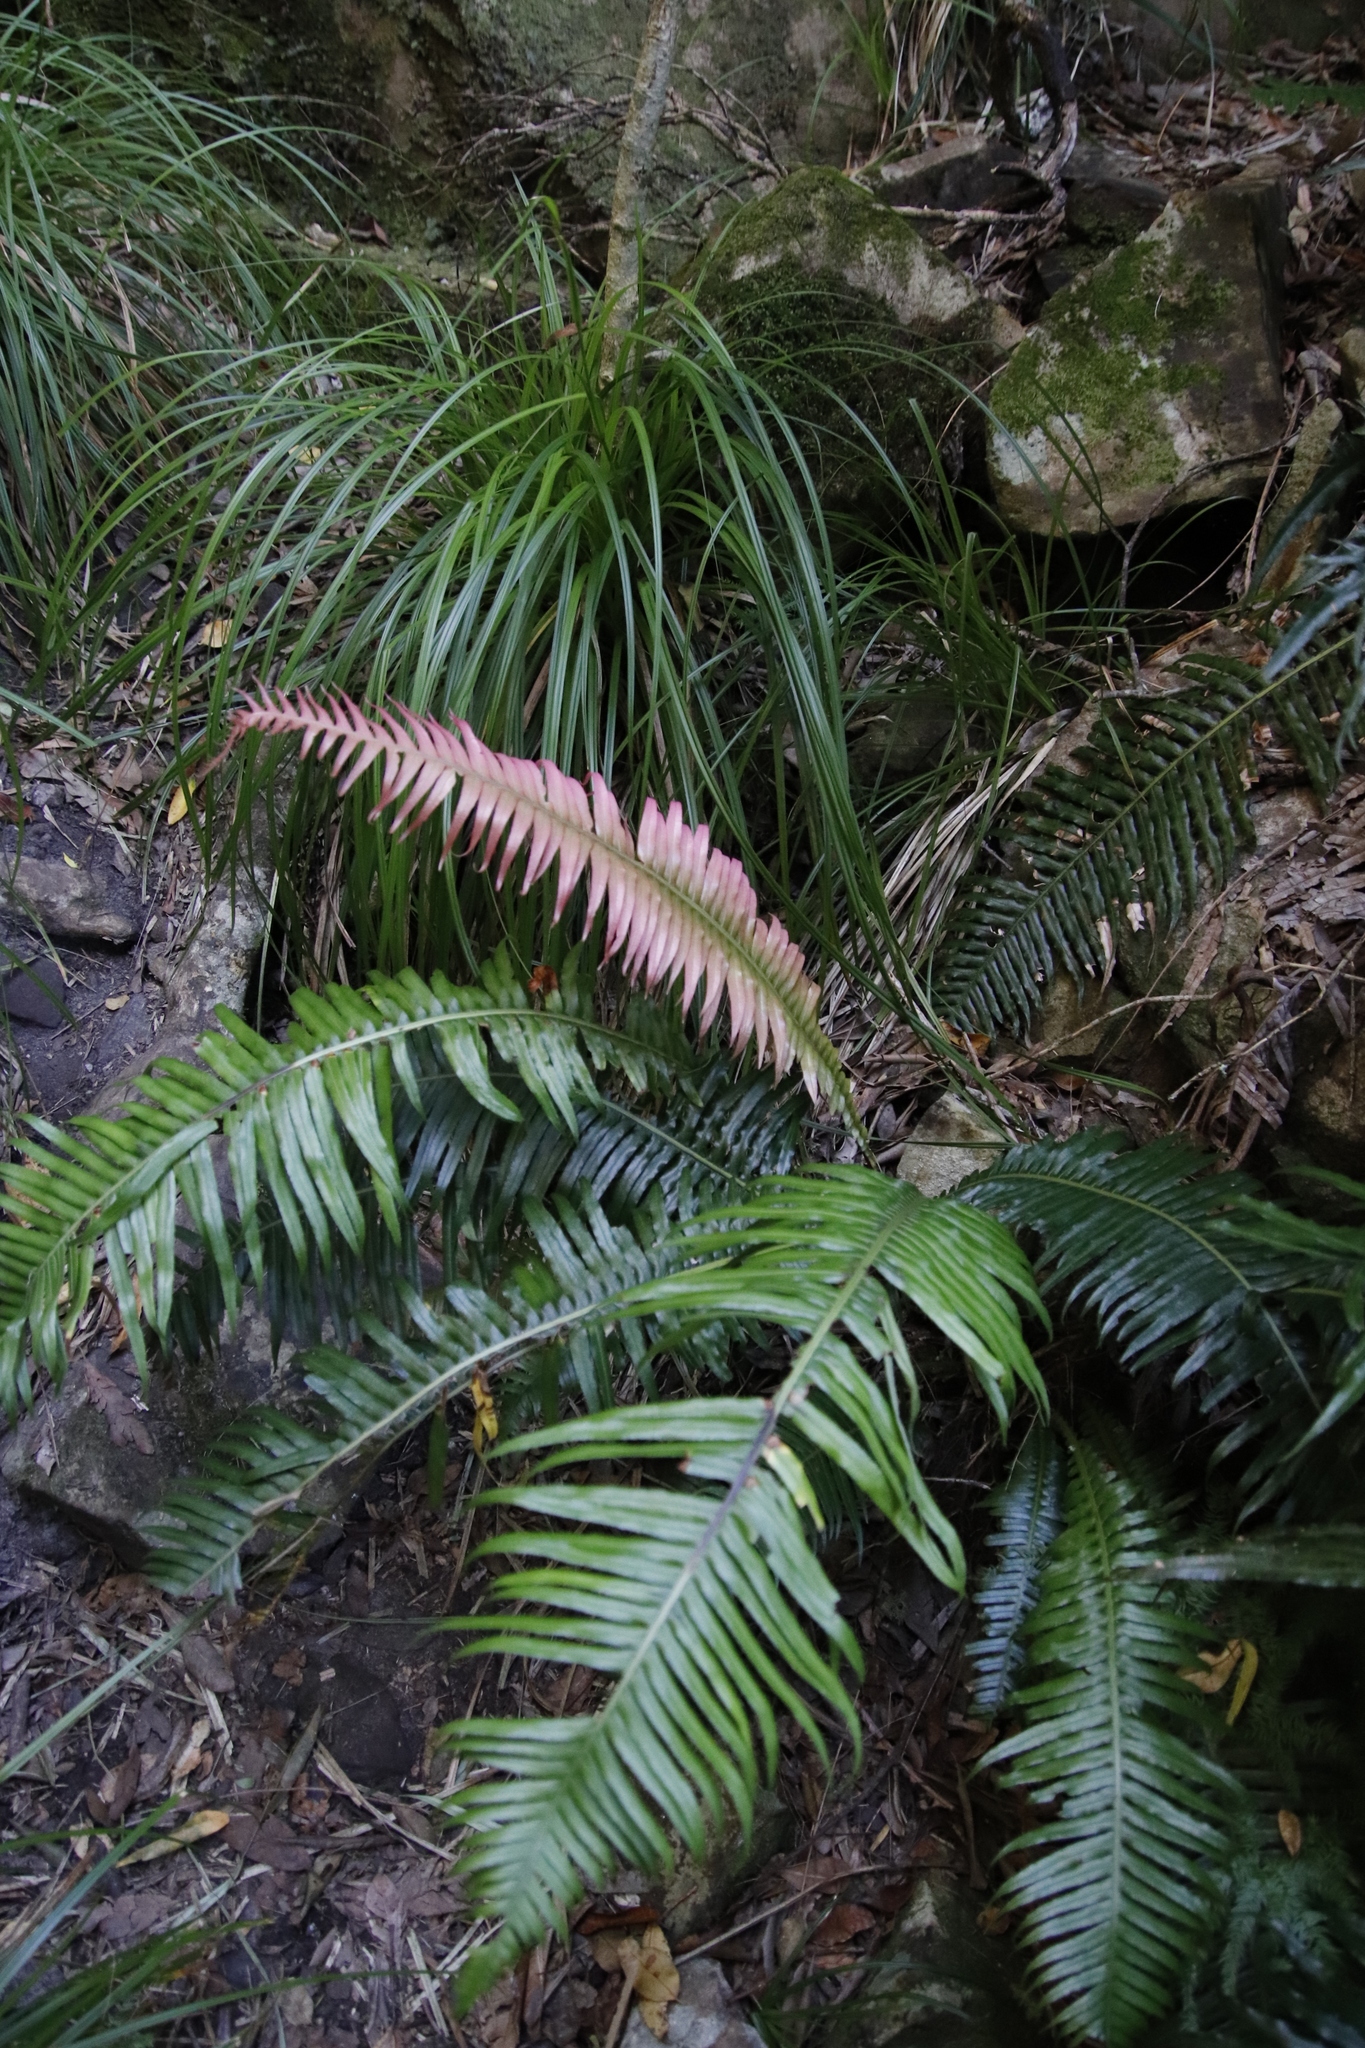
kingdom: Plantae
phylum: Tracheophyta
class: Polypodiopsida
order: Polypodiales
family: Blechnaceae
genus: Lomaridium
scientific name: Lomaridium attenuatum
